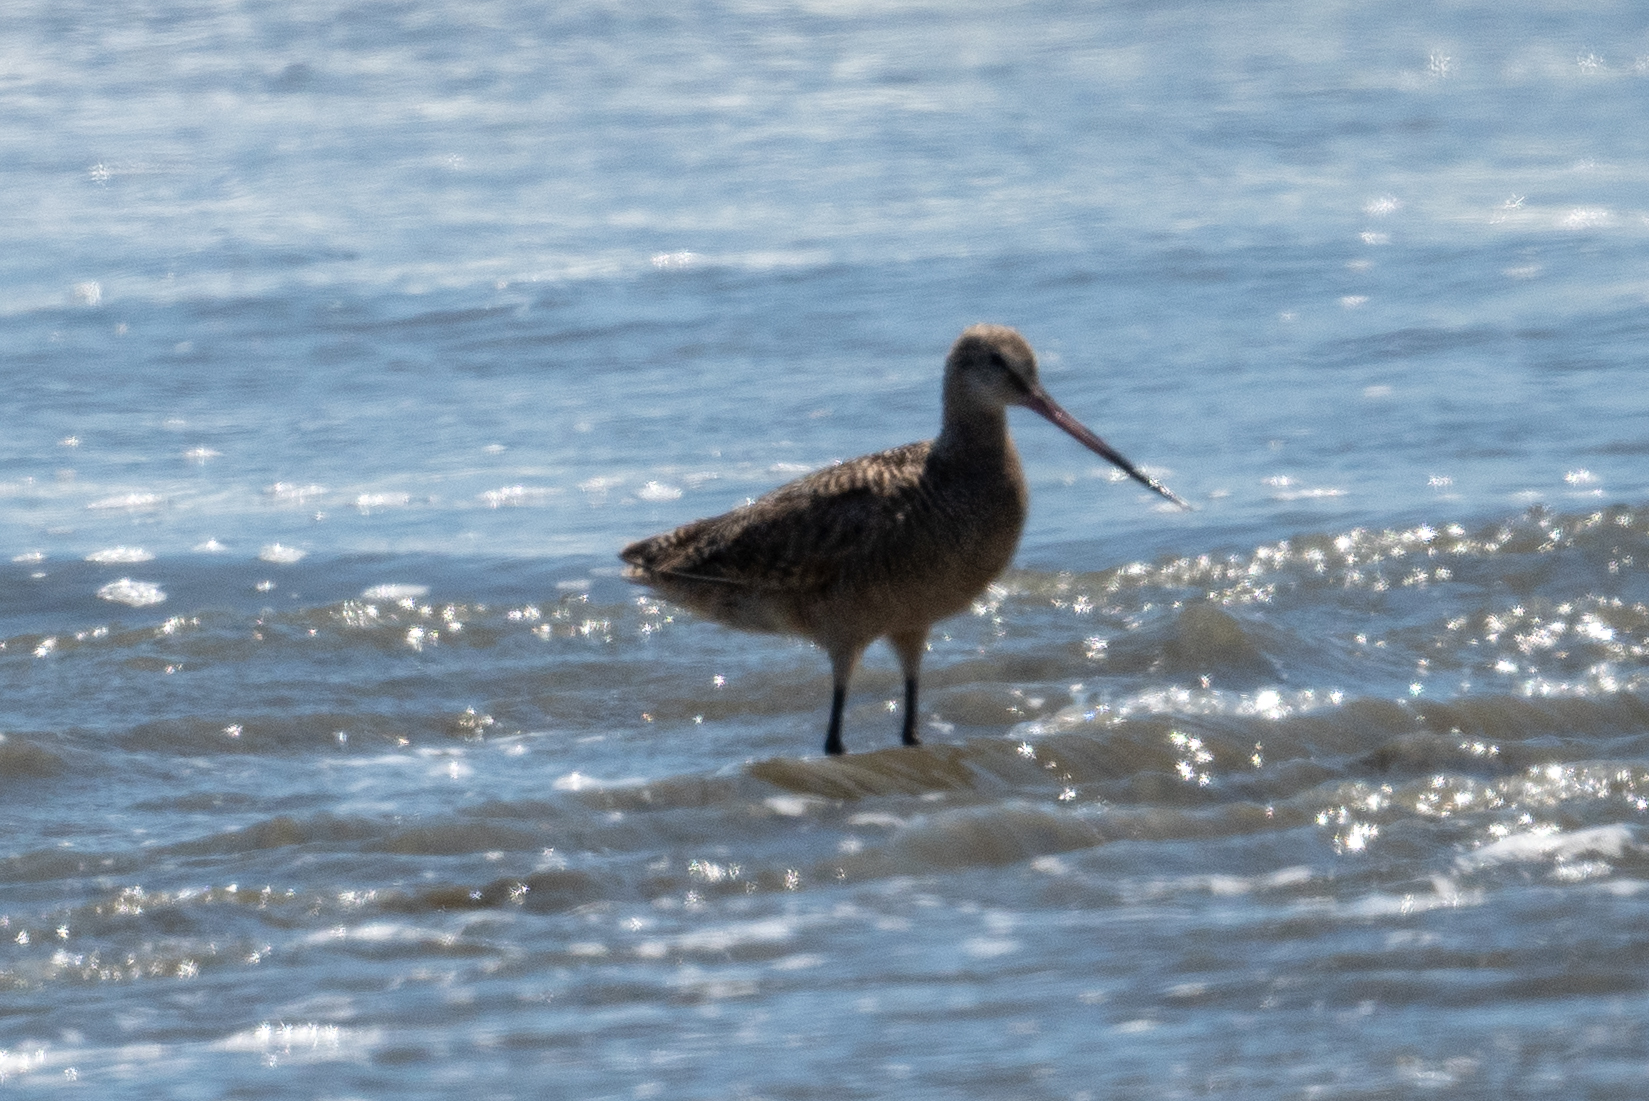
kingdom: Animalia
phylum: Chordata
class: Aves
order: Charadriiformes
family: Scolopacidae
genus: Limosa
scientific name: Limosa fedoa
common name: Marbled godwit
